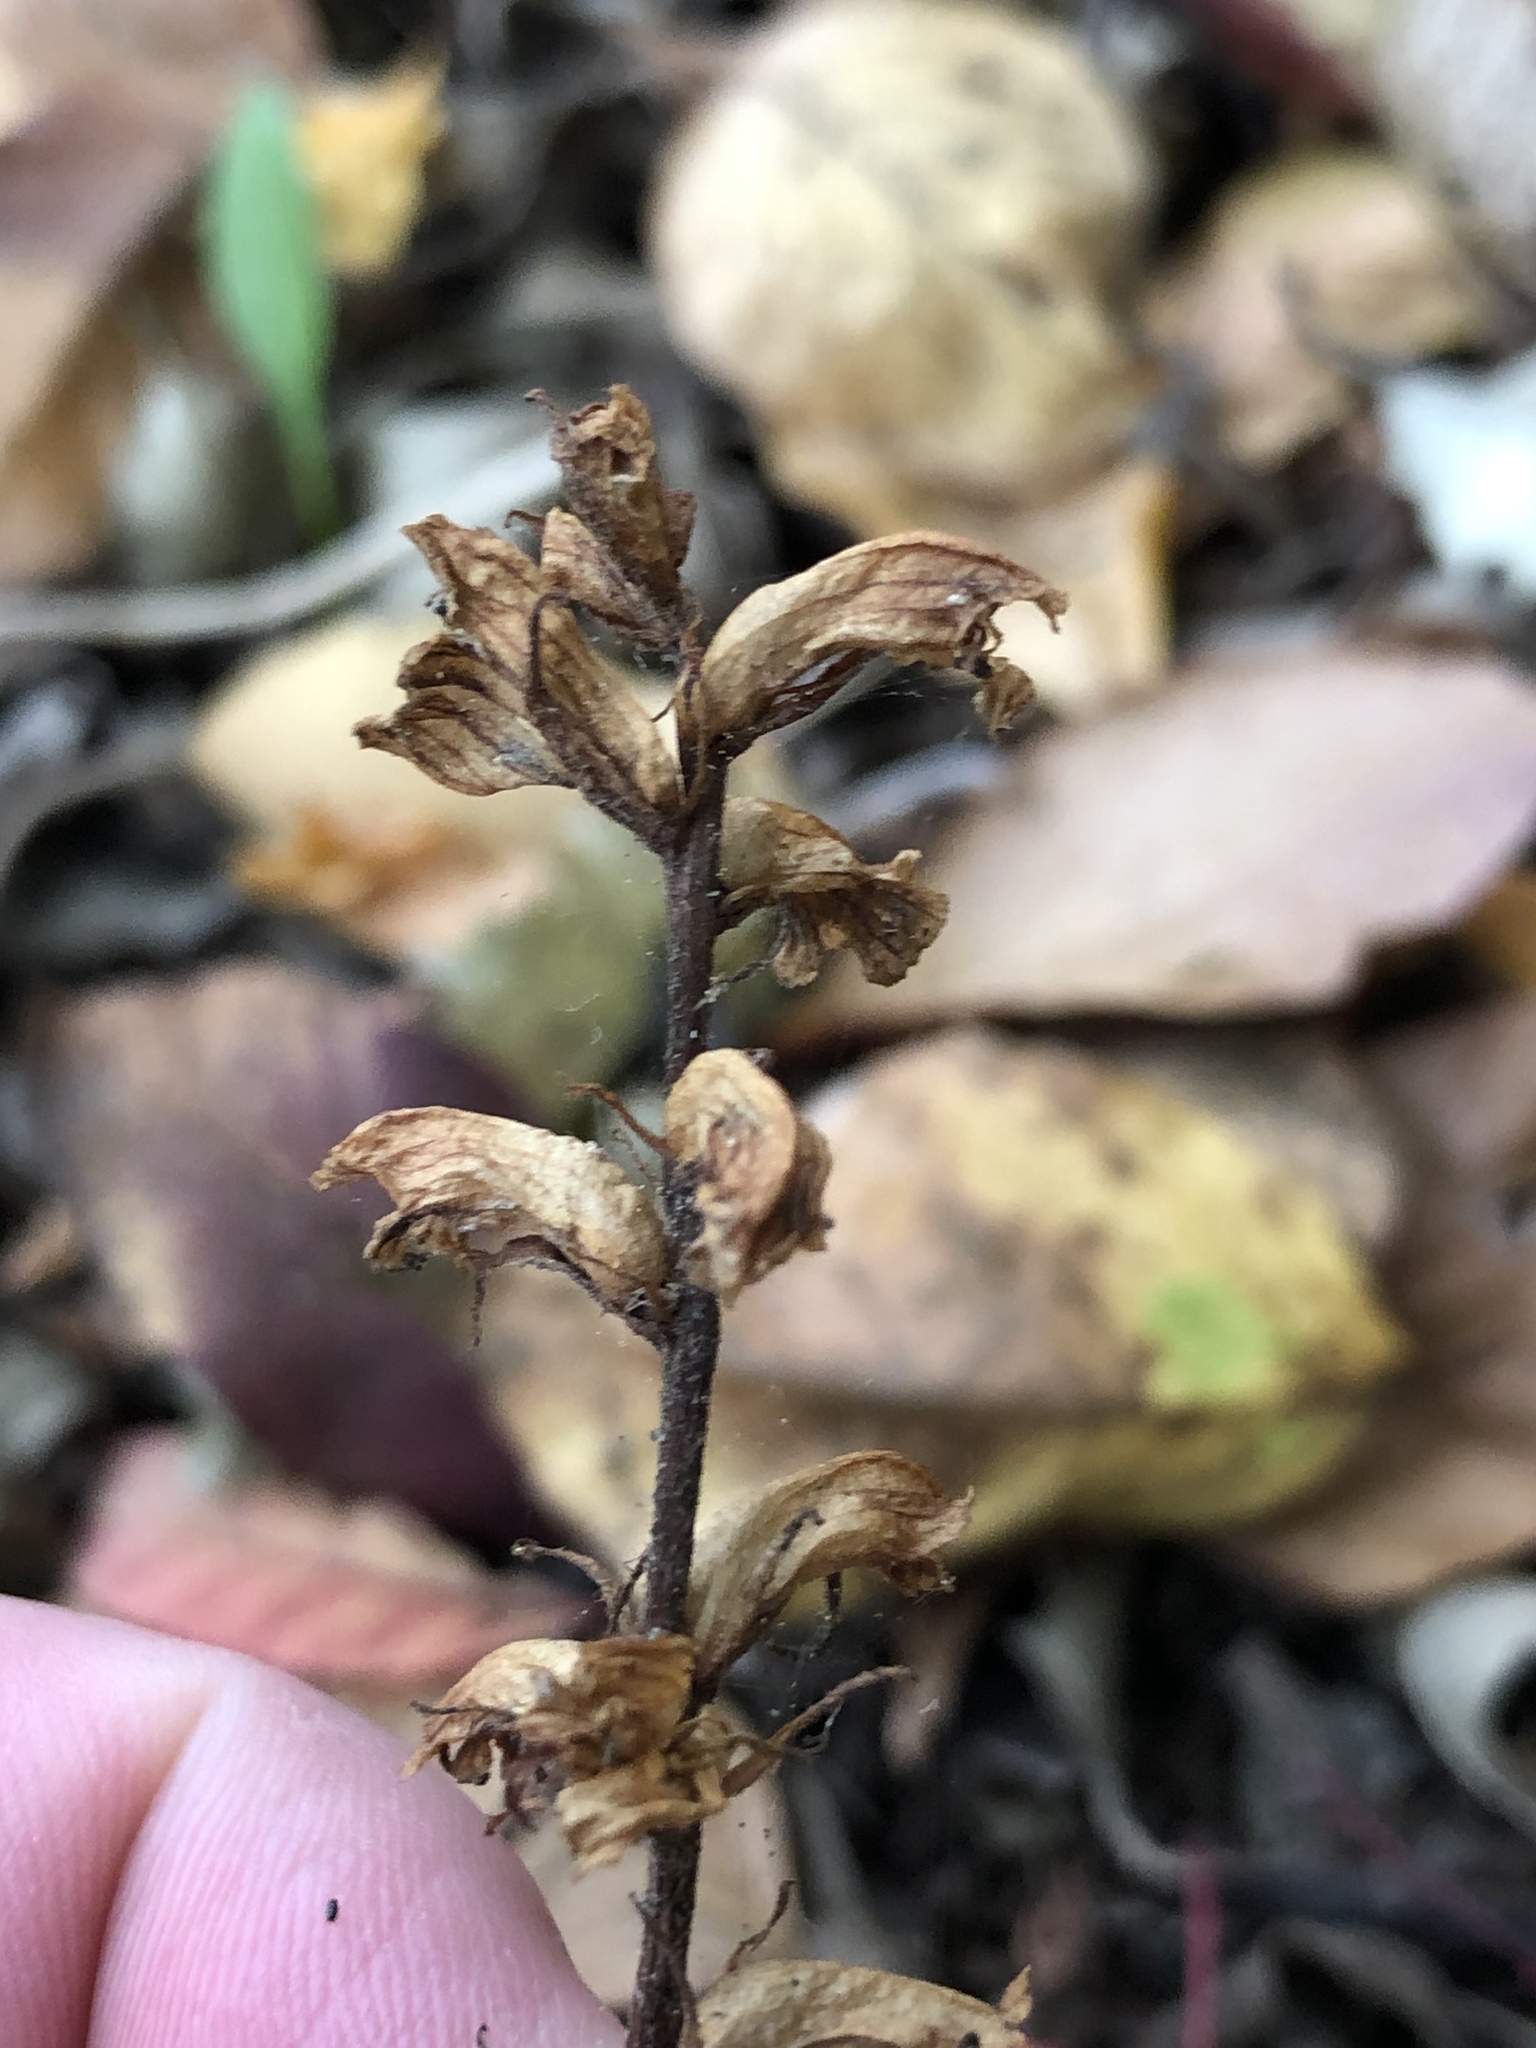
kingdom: Plantae
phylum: Tracheophyta
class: Magnoliopsida
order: Lamiales
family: Orobanchaceae
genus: Orobanche
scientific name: Orobanche minor
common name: Common broomrape
